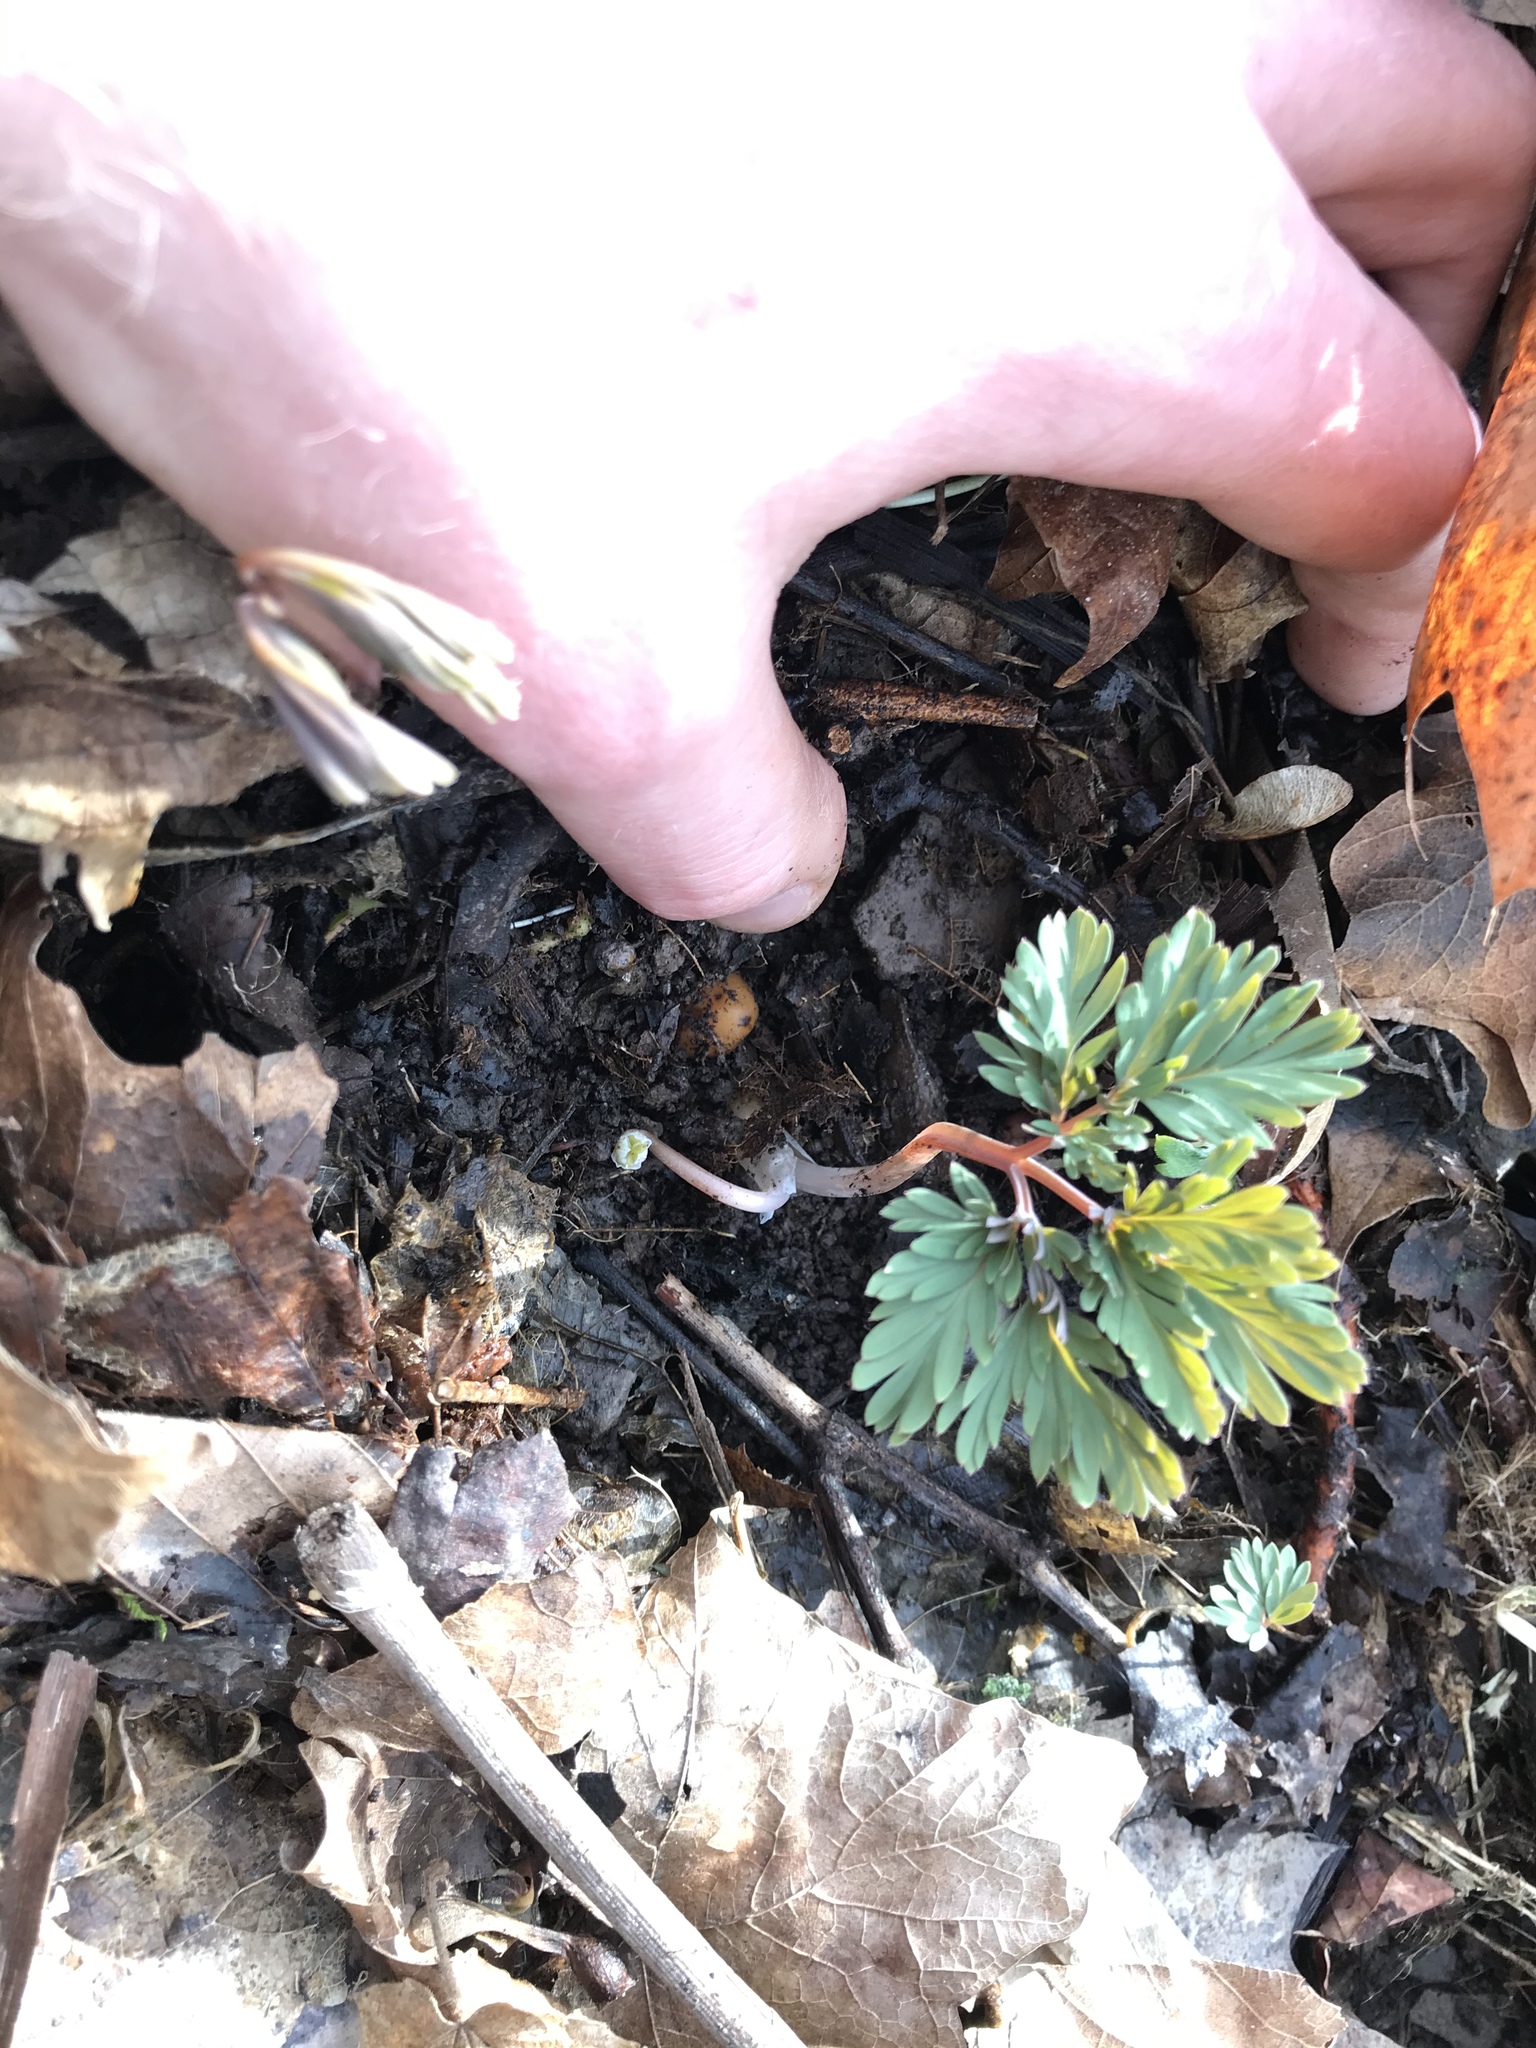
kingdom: Plantae
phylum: Tracheophyta
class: Magnoliopsida
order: Ranunculales
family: Papaveraceae
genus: Dicentra
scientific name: Dicentra canadensis
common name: Squirrel-corn
